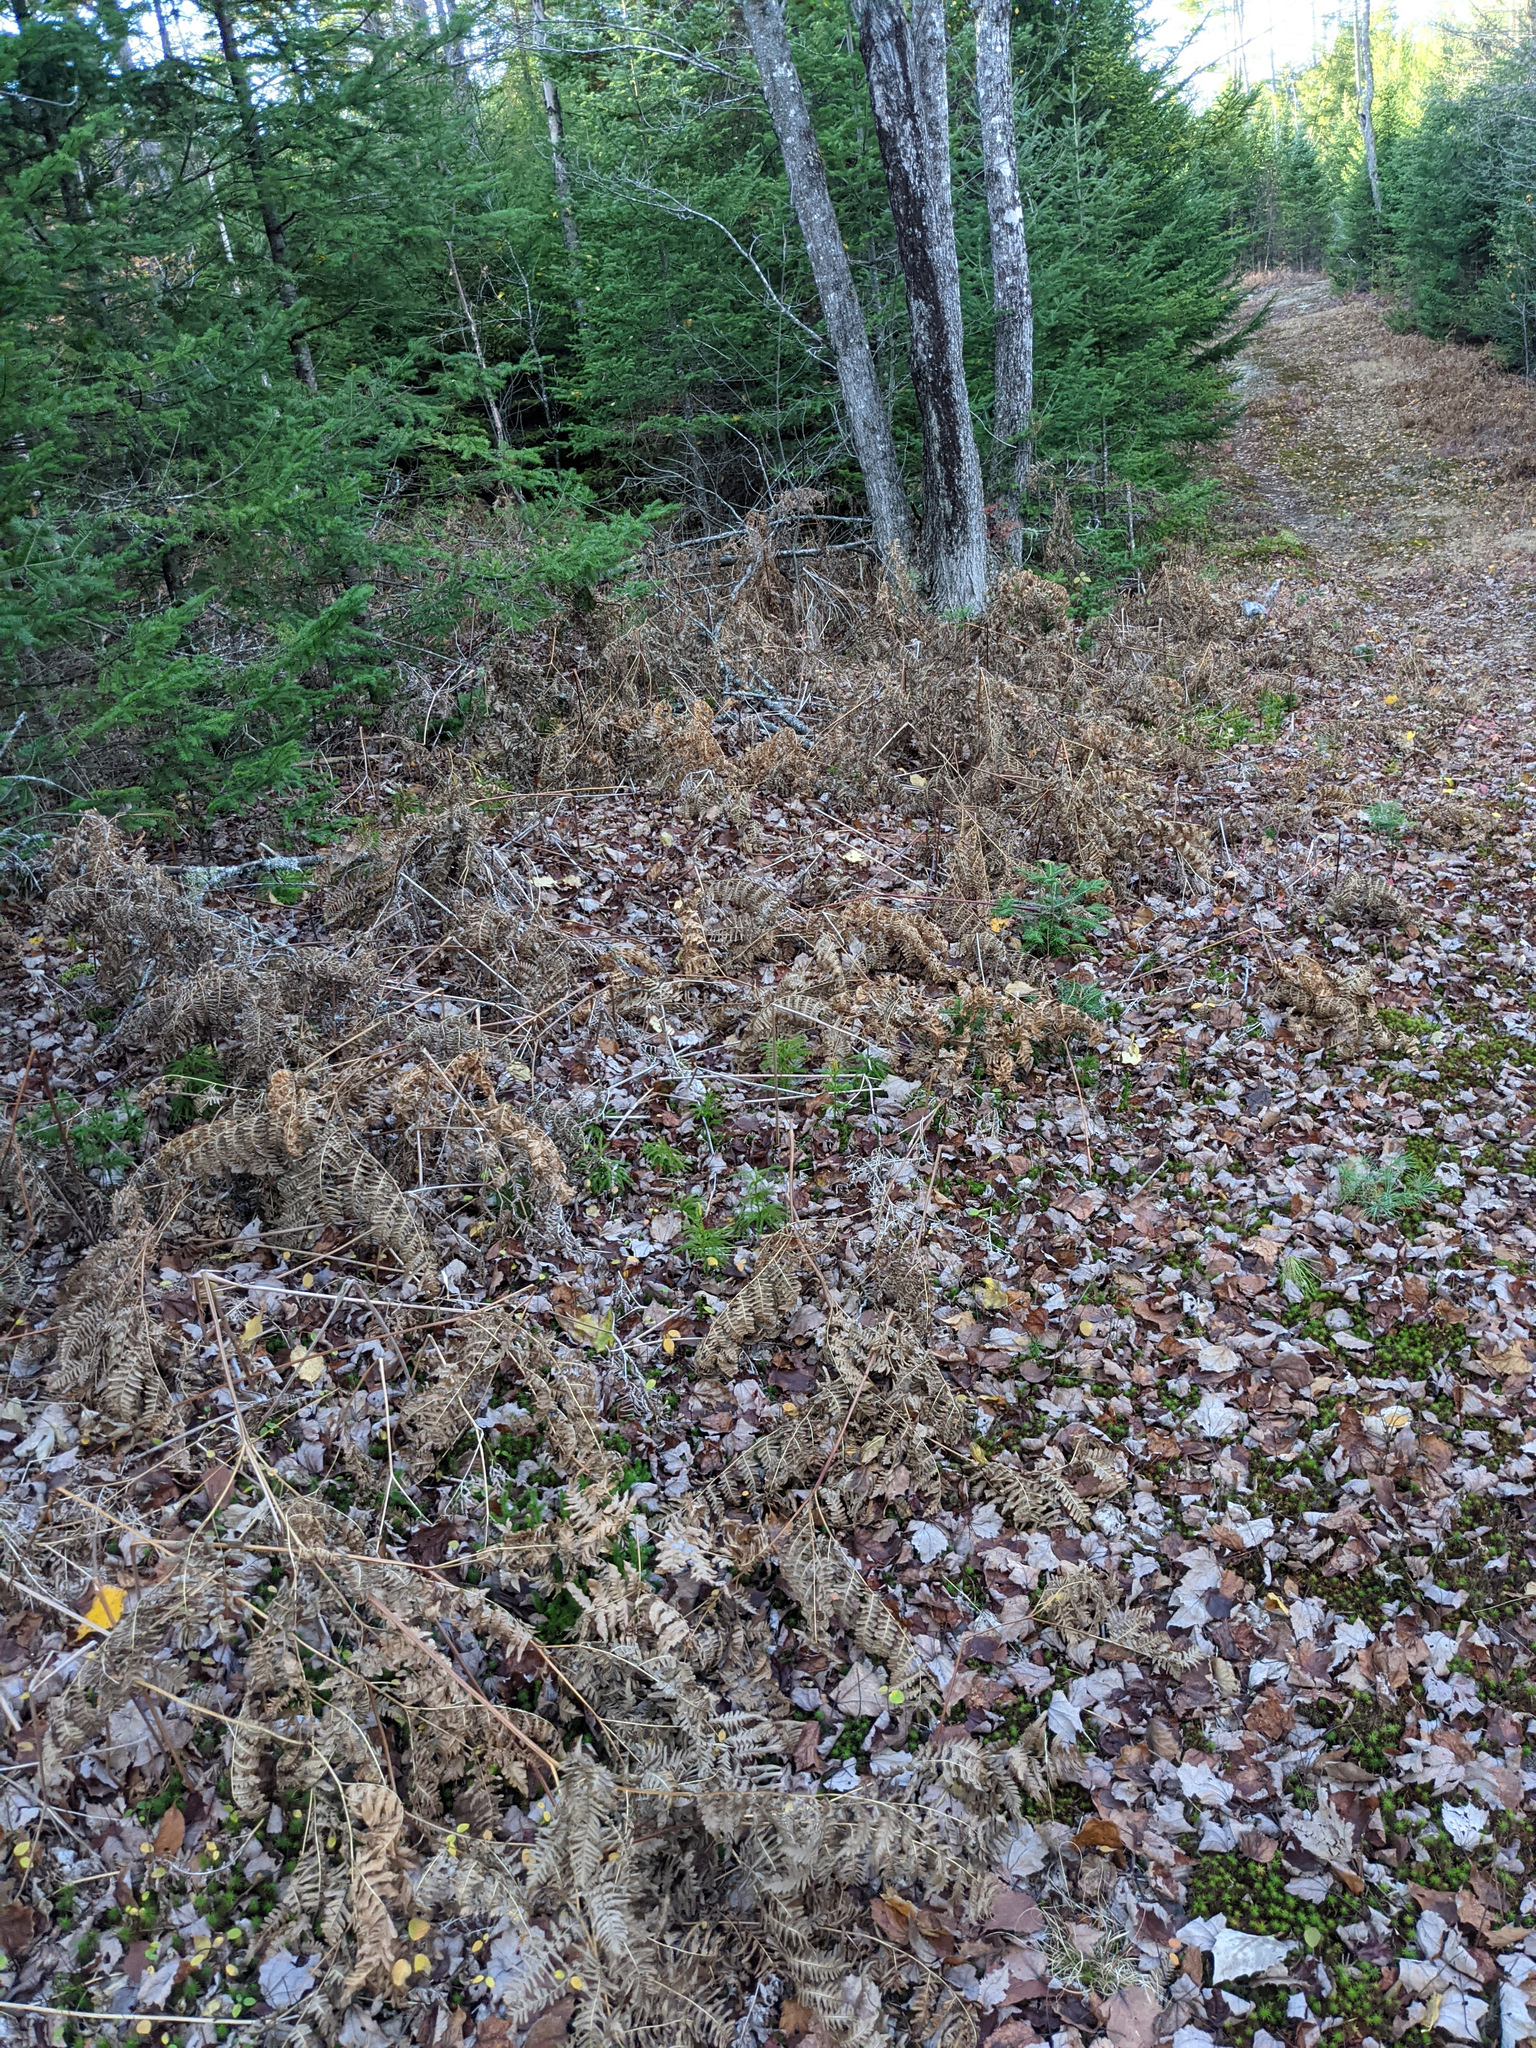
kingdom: Plantae
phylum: Tracheophyta
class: Polypodiopsida
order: Polypodiales
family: Dennstaedtiaceae
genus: Pteridium
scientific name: Pteridium aquilinum
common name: Bracken
